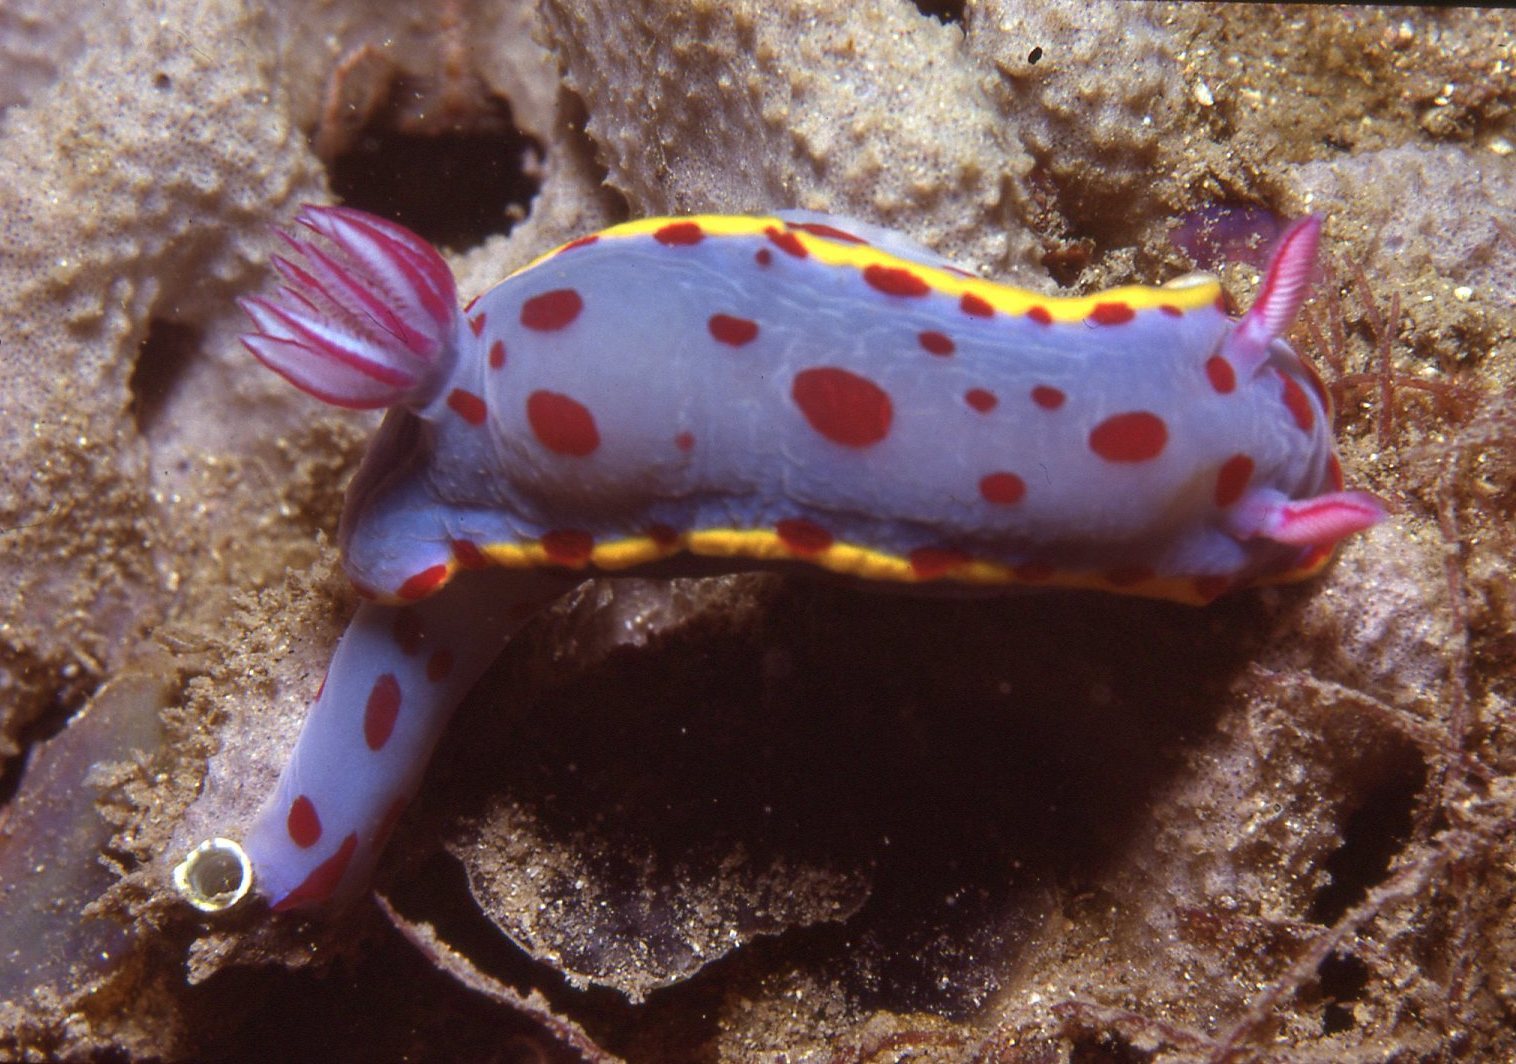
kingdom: Animalia
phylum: Mollusca
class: Gastropoda
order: Nudibranchia
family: Chromodorididae
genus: Hypselodoris
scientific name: Hypselodoris bennetti
